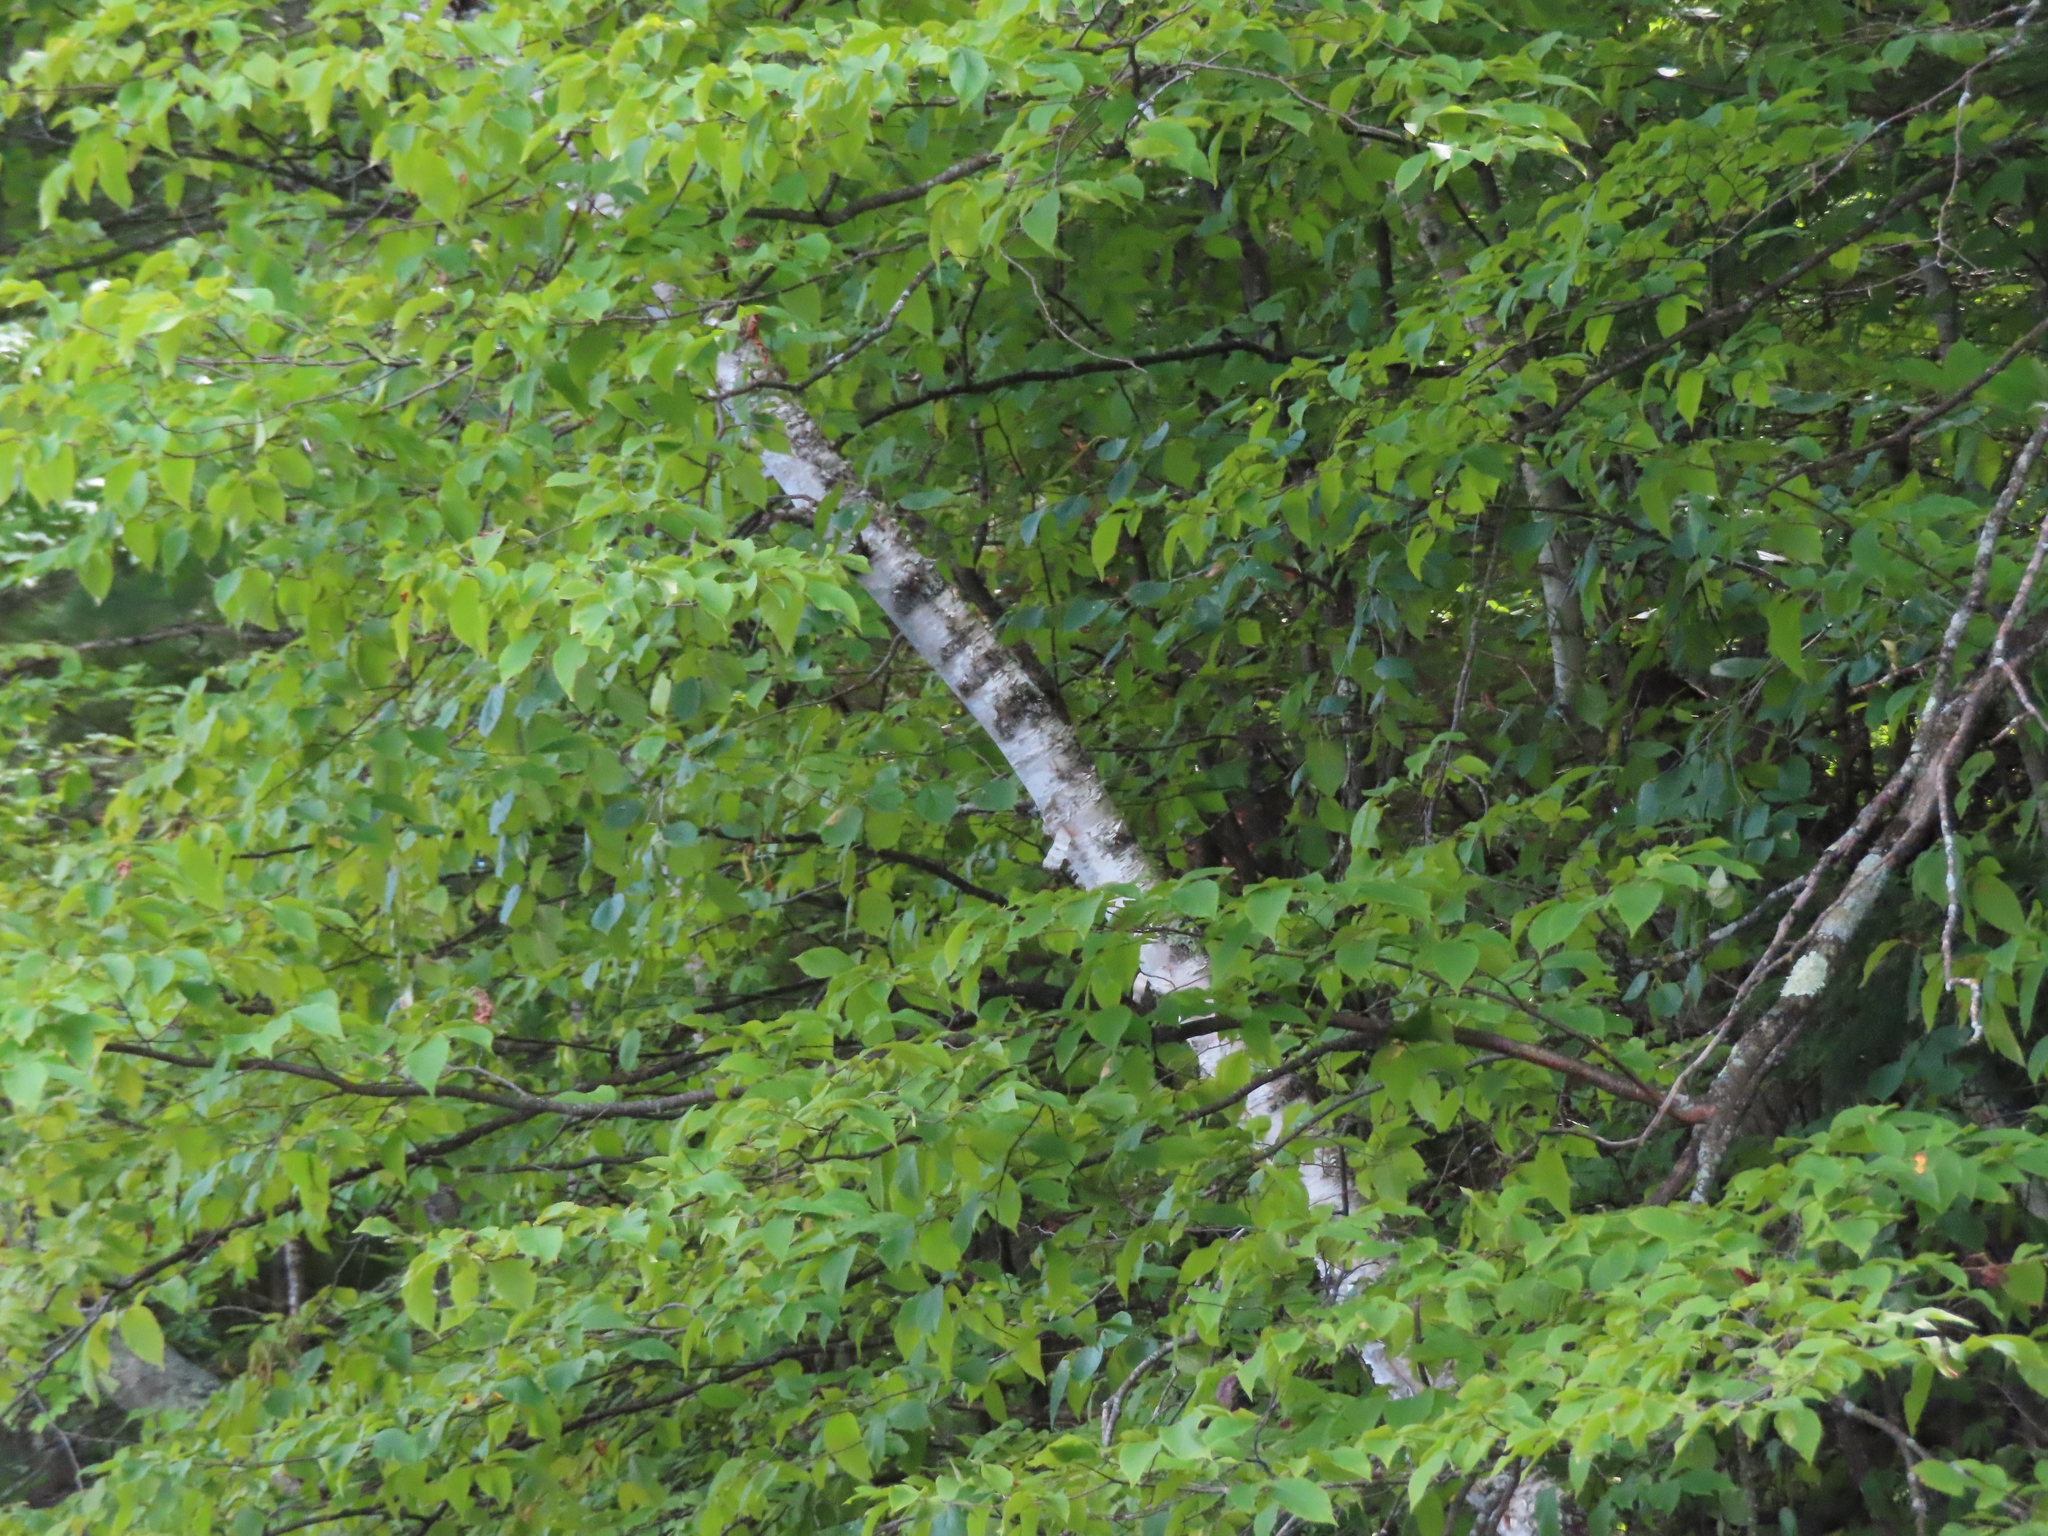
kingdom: Plantae
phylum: Tracheophyta
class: Magnoliopsida
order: Fagales
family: Betulaceae
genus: Betula
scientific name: Betula papyrifera
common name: Paper birch
